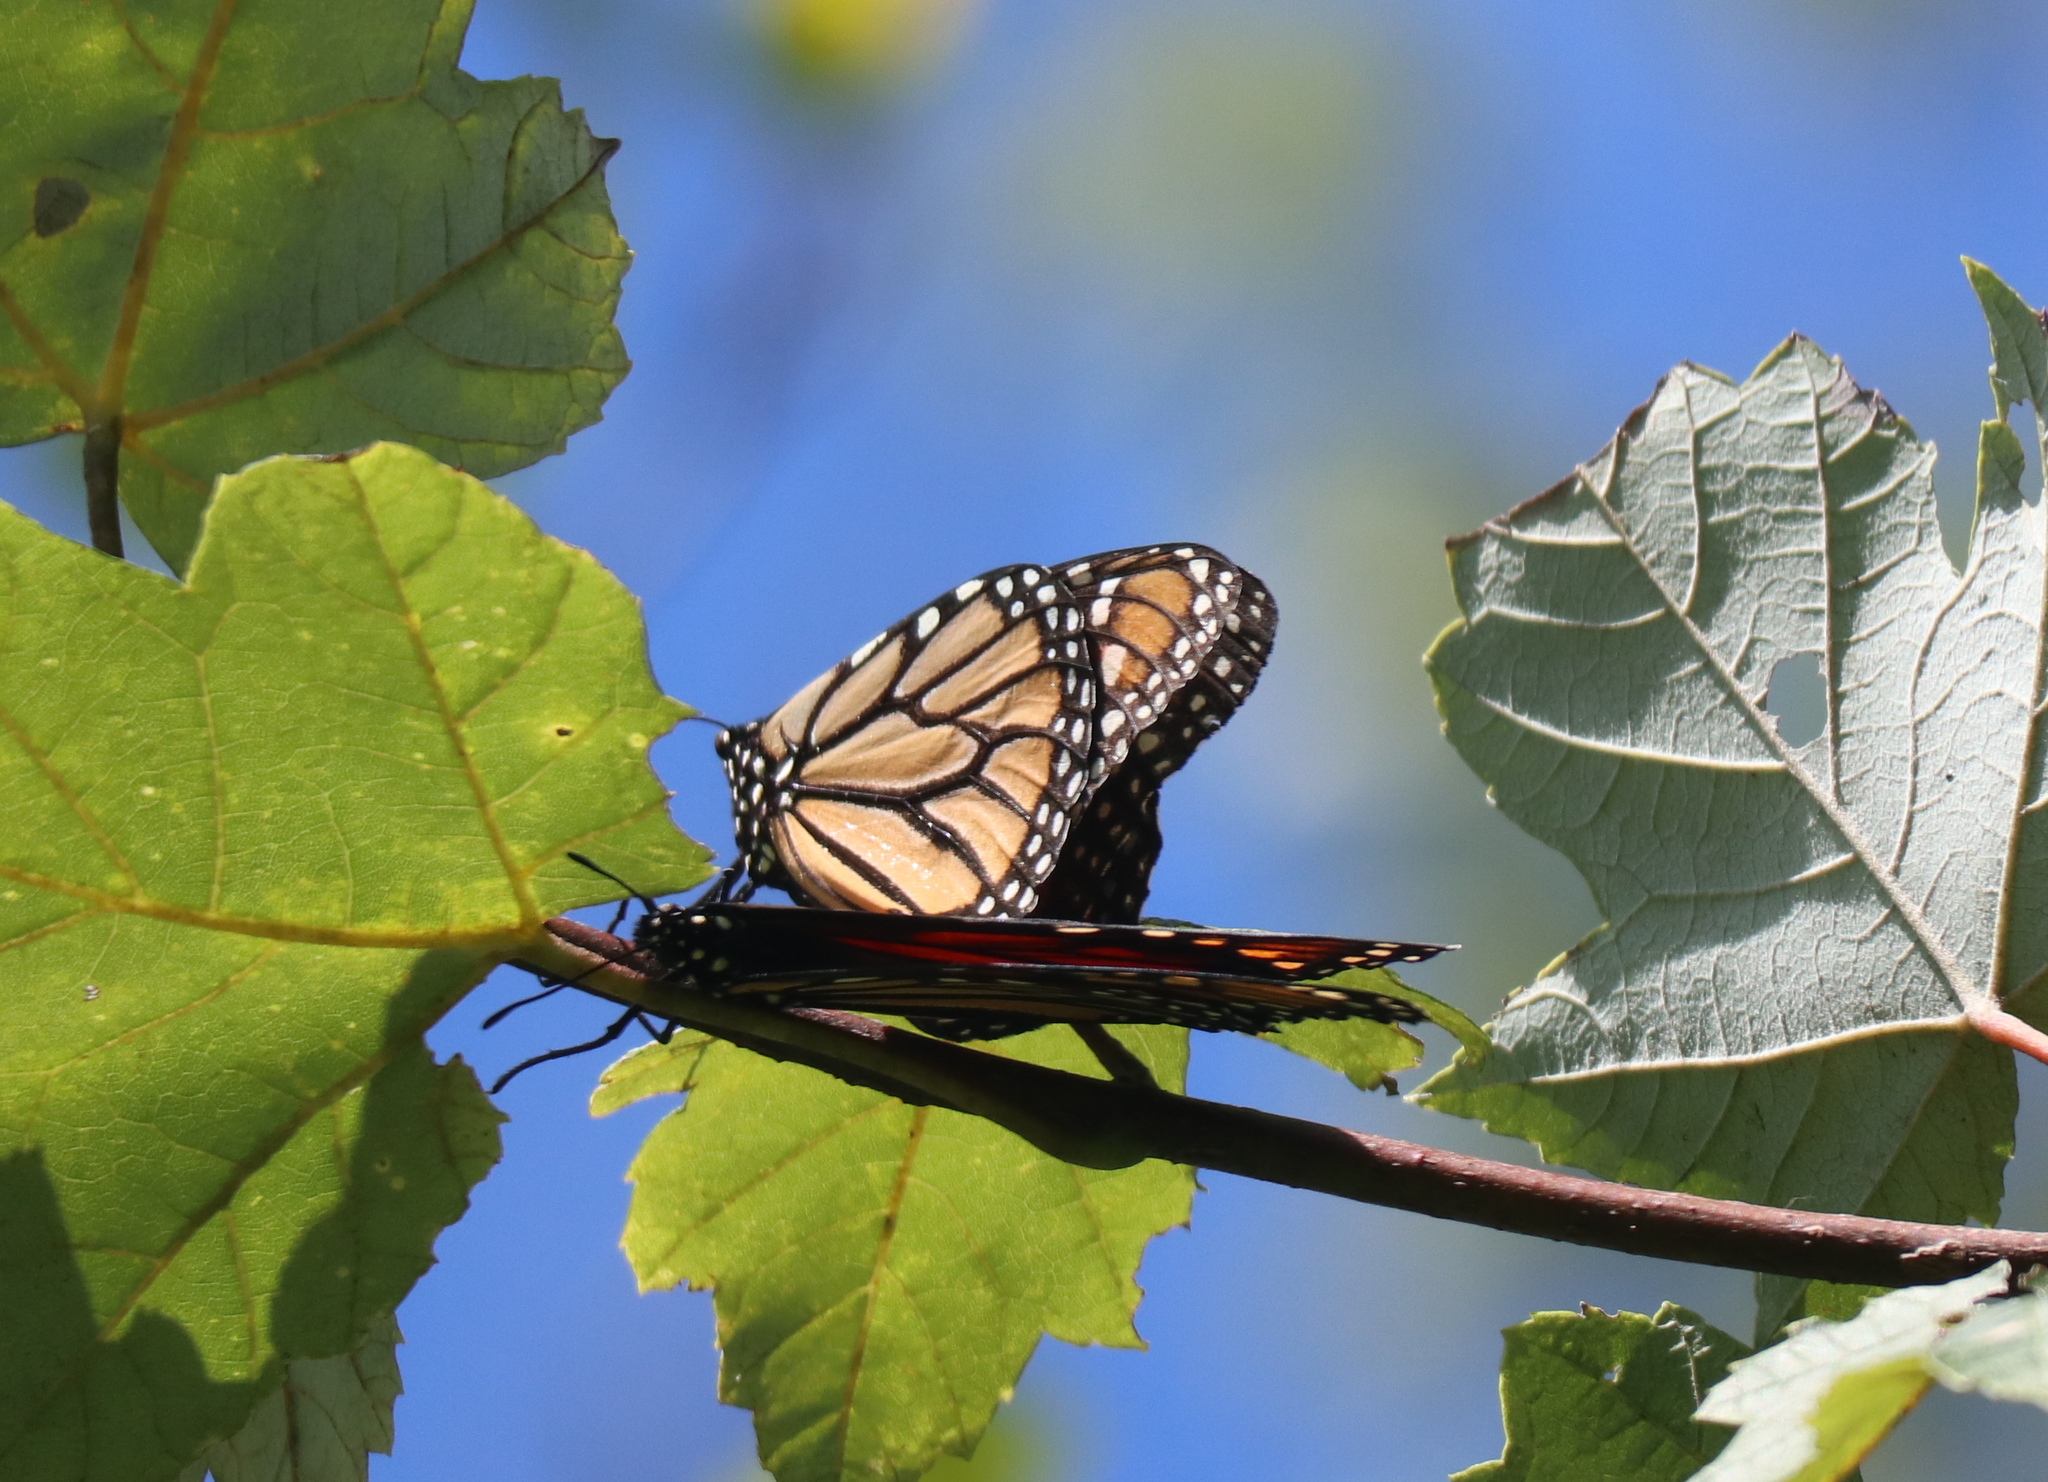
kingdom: Animalia
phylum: Arthropoda
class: Insecta
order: Lepidoptera
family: Nymphalidae
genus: Danaus
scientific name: Danaus plexippus
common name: Monarch
